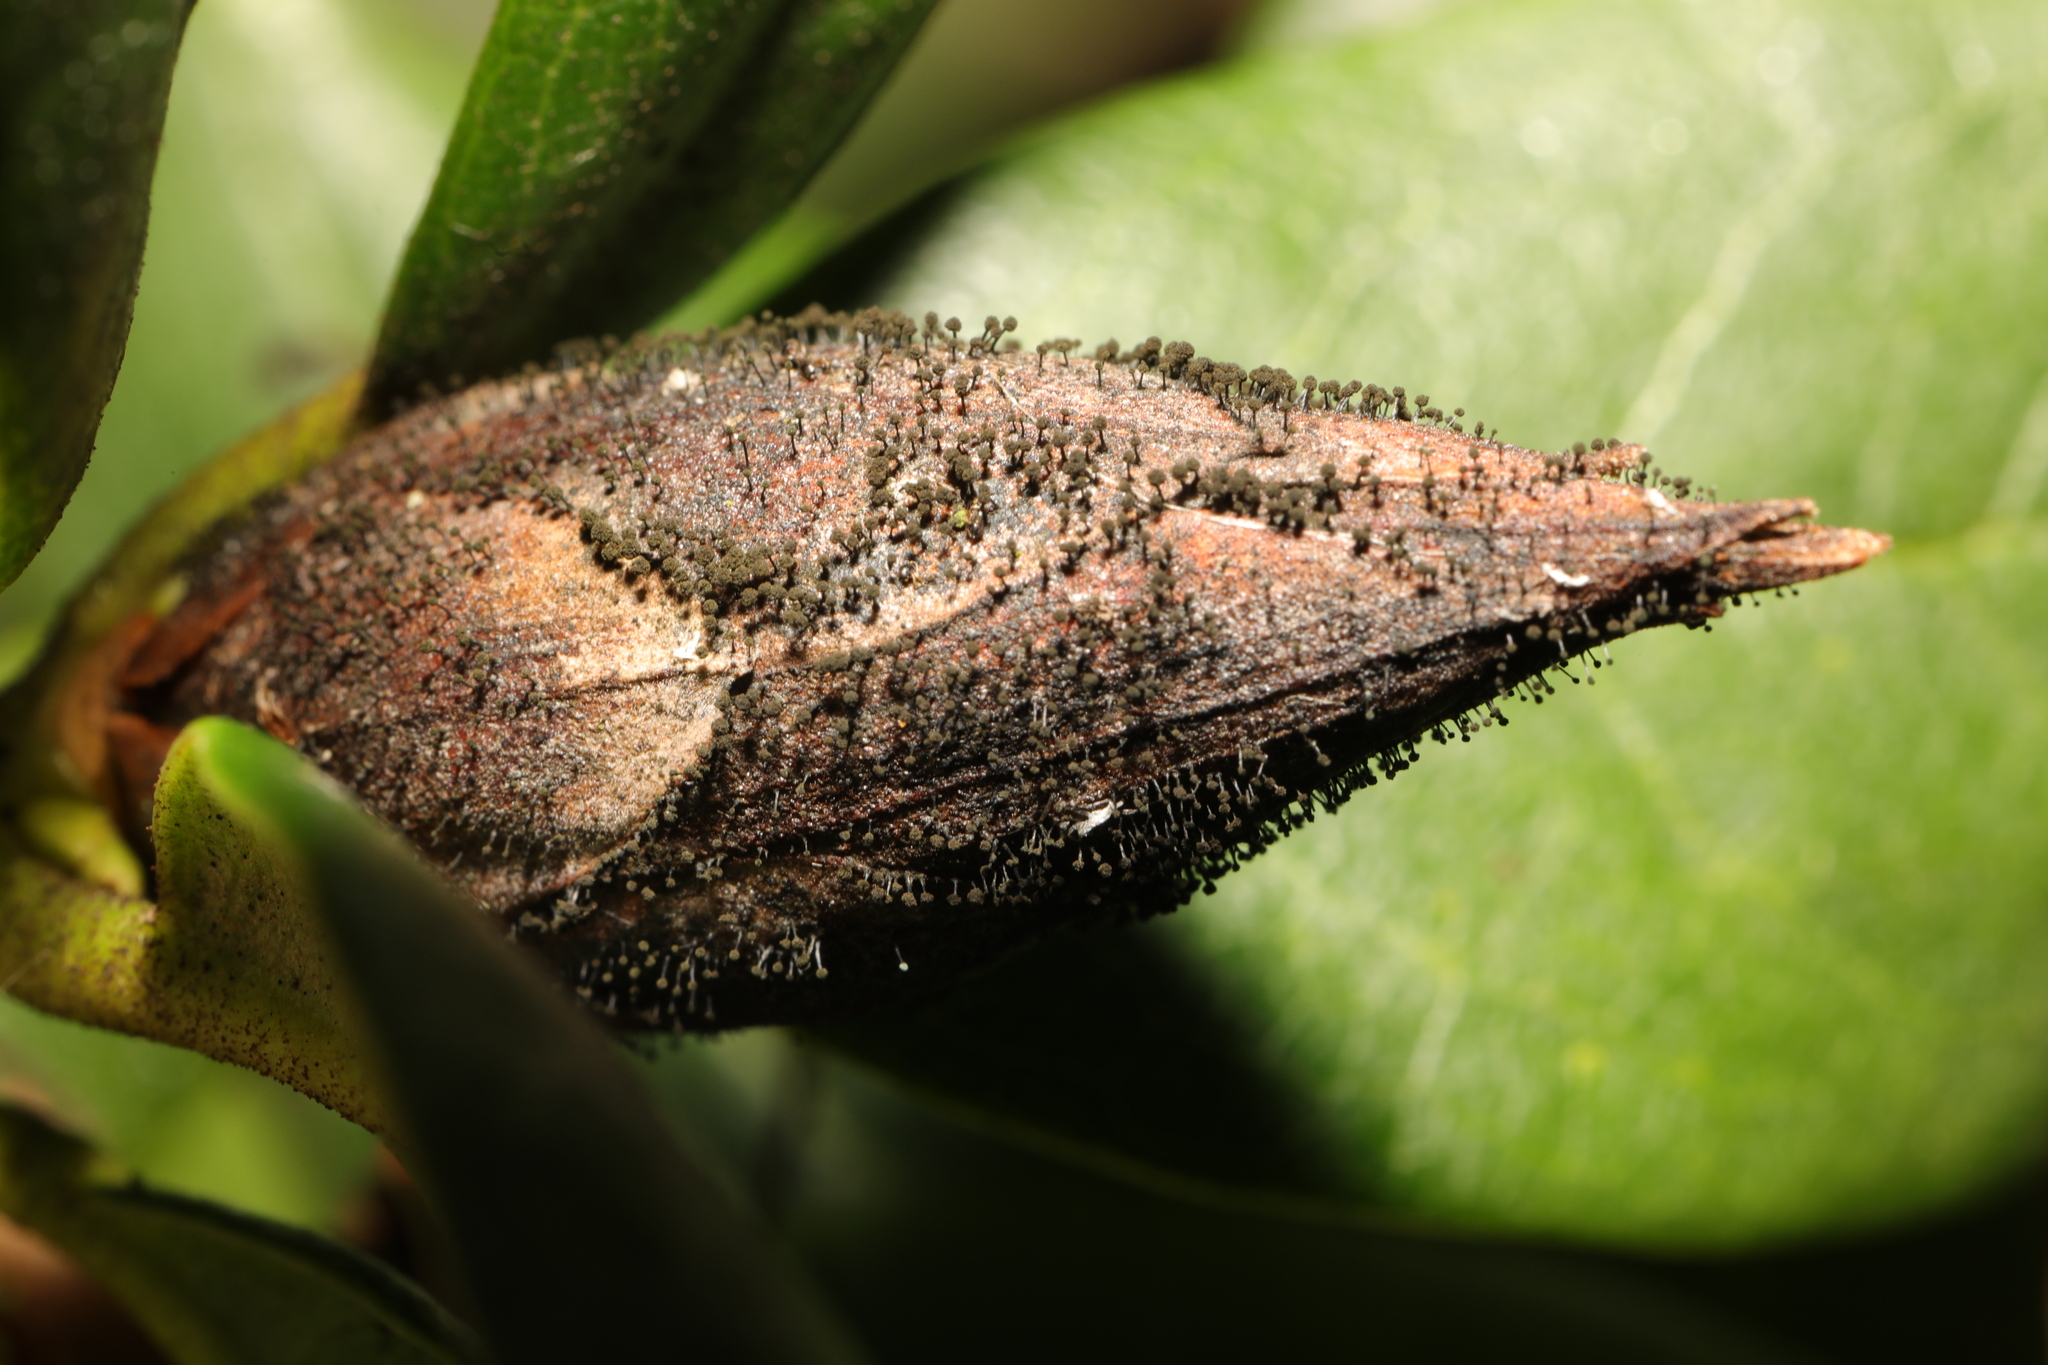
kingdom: Fungi
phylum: Ascomycota
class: Dothideomycetes
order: Pleosporales
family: Melanommataceae
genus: Seifertia
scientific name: Seifertia azaleae
